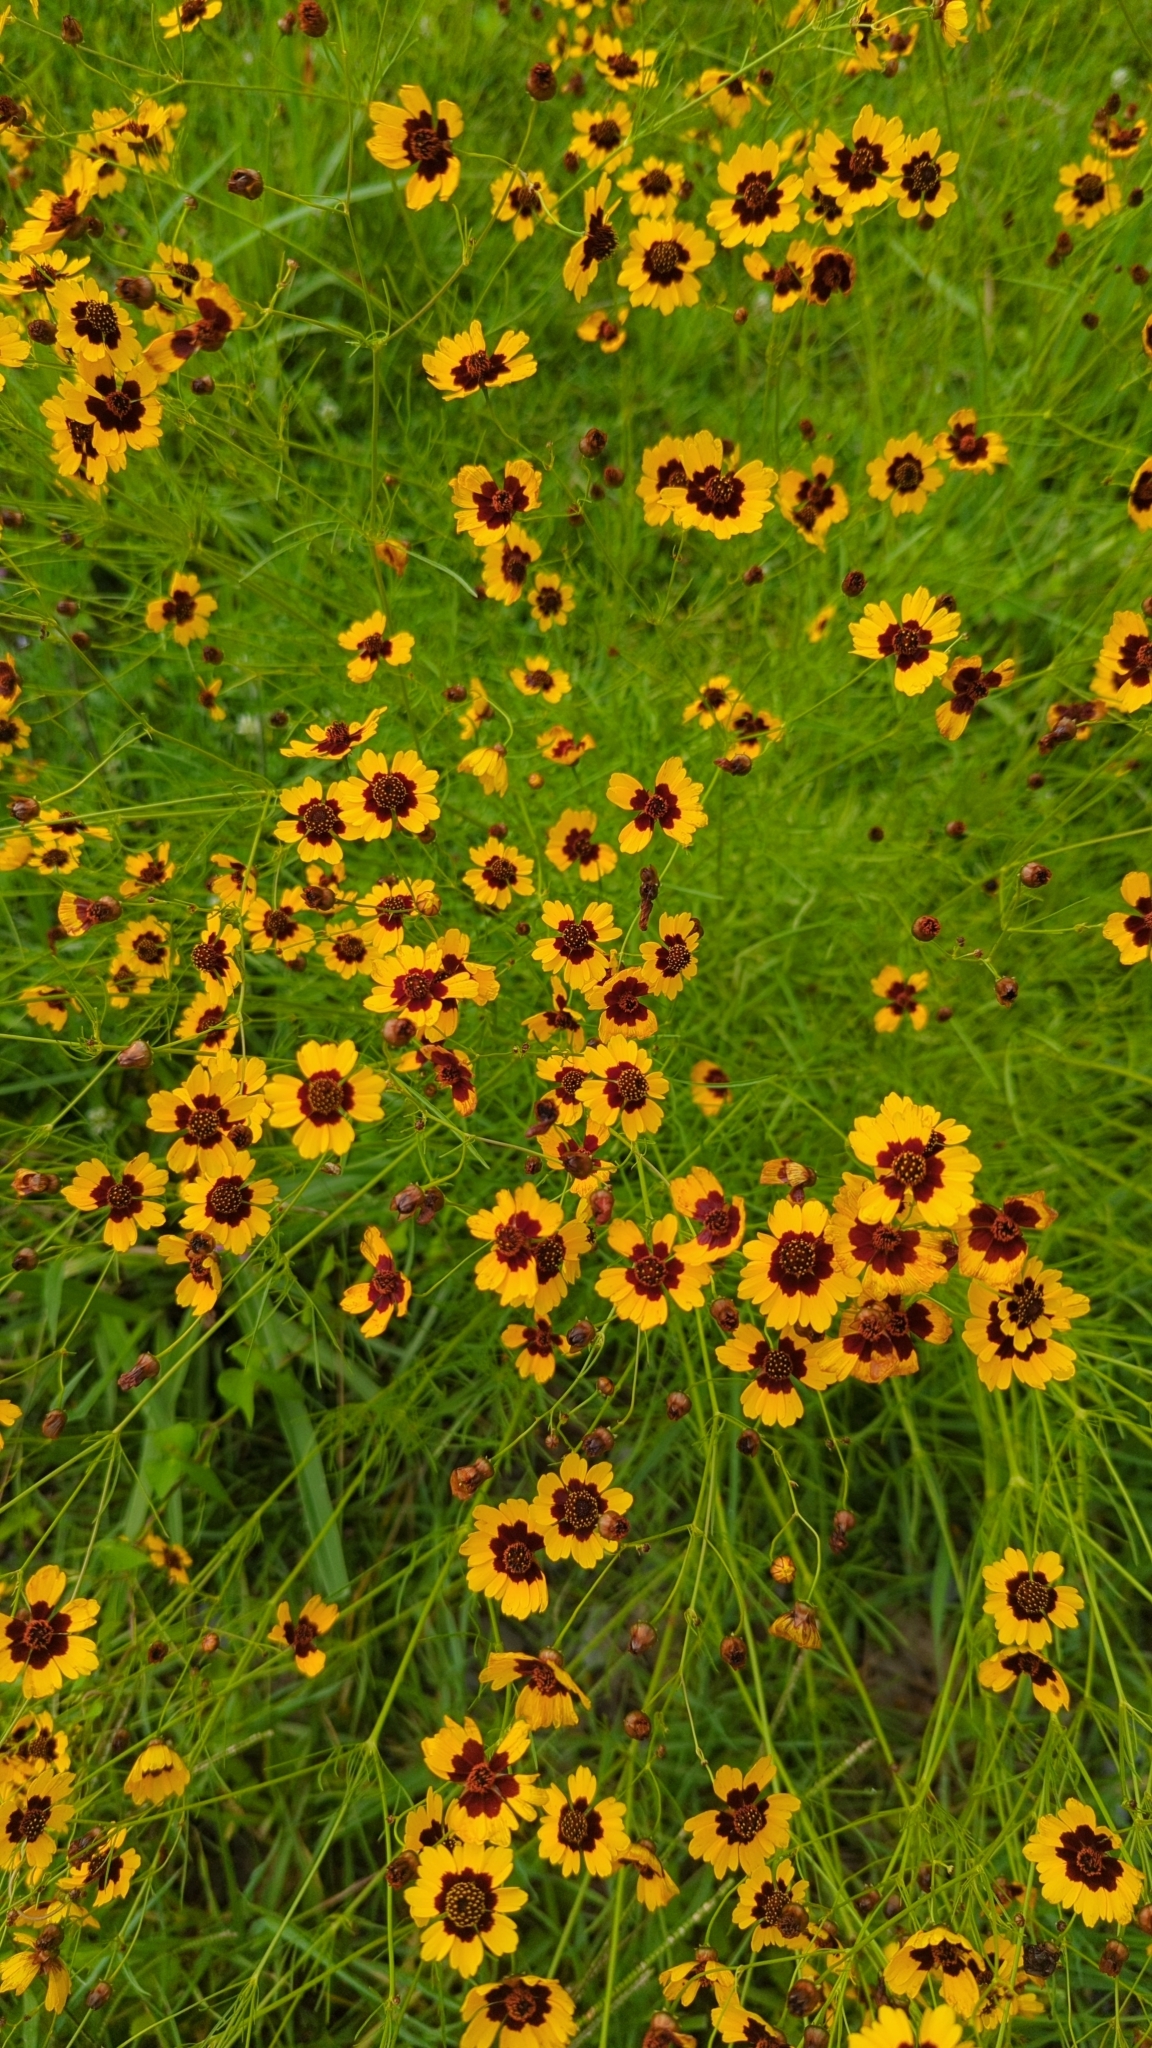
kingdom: Plantae
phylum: Tracheophyta
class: Magnoliopsida
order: Asterales
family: Asteraceae
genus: Coreopsis
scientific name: Coreopsis tinctoria
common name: Garden tickseed
